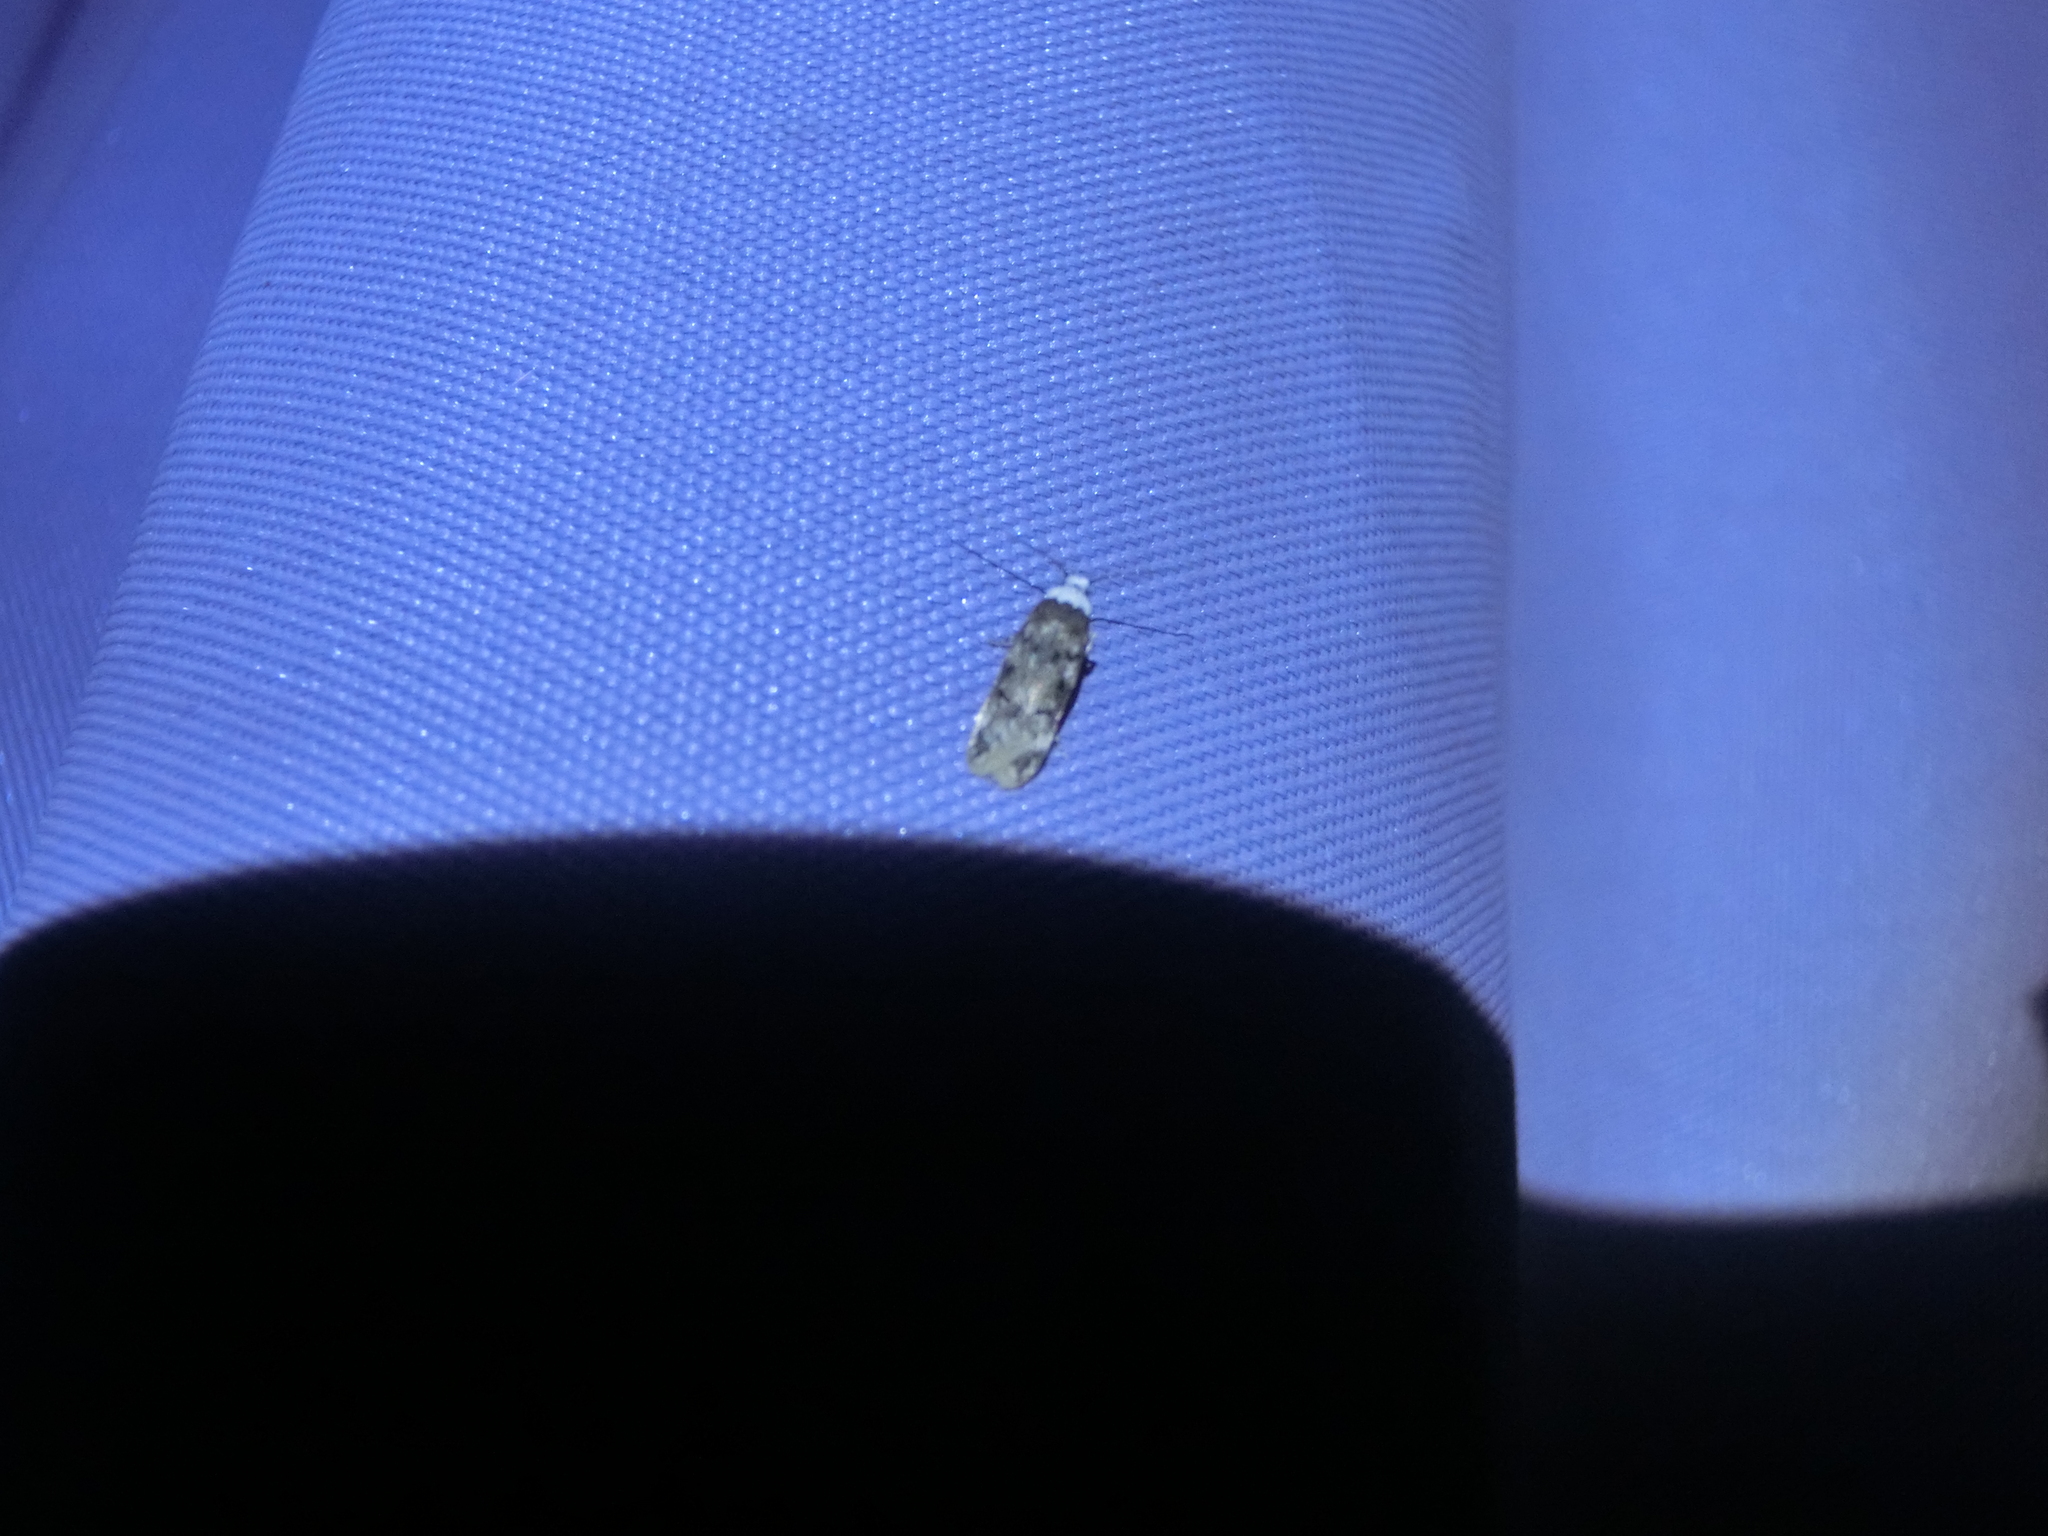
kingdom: Animalia
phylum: Arthropoda
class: Insecta
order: Lepidoptera
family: Oecophoridae
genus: Endrosis
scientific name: Endrosis sarcitrella
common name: White-shouldered house moth
